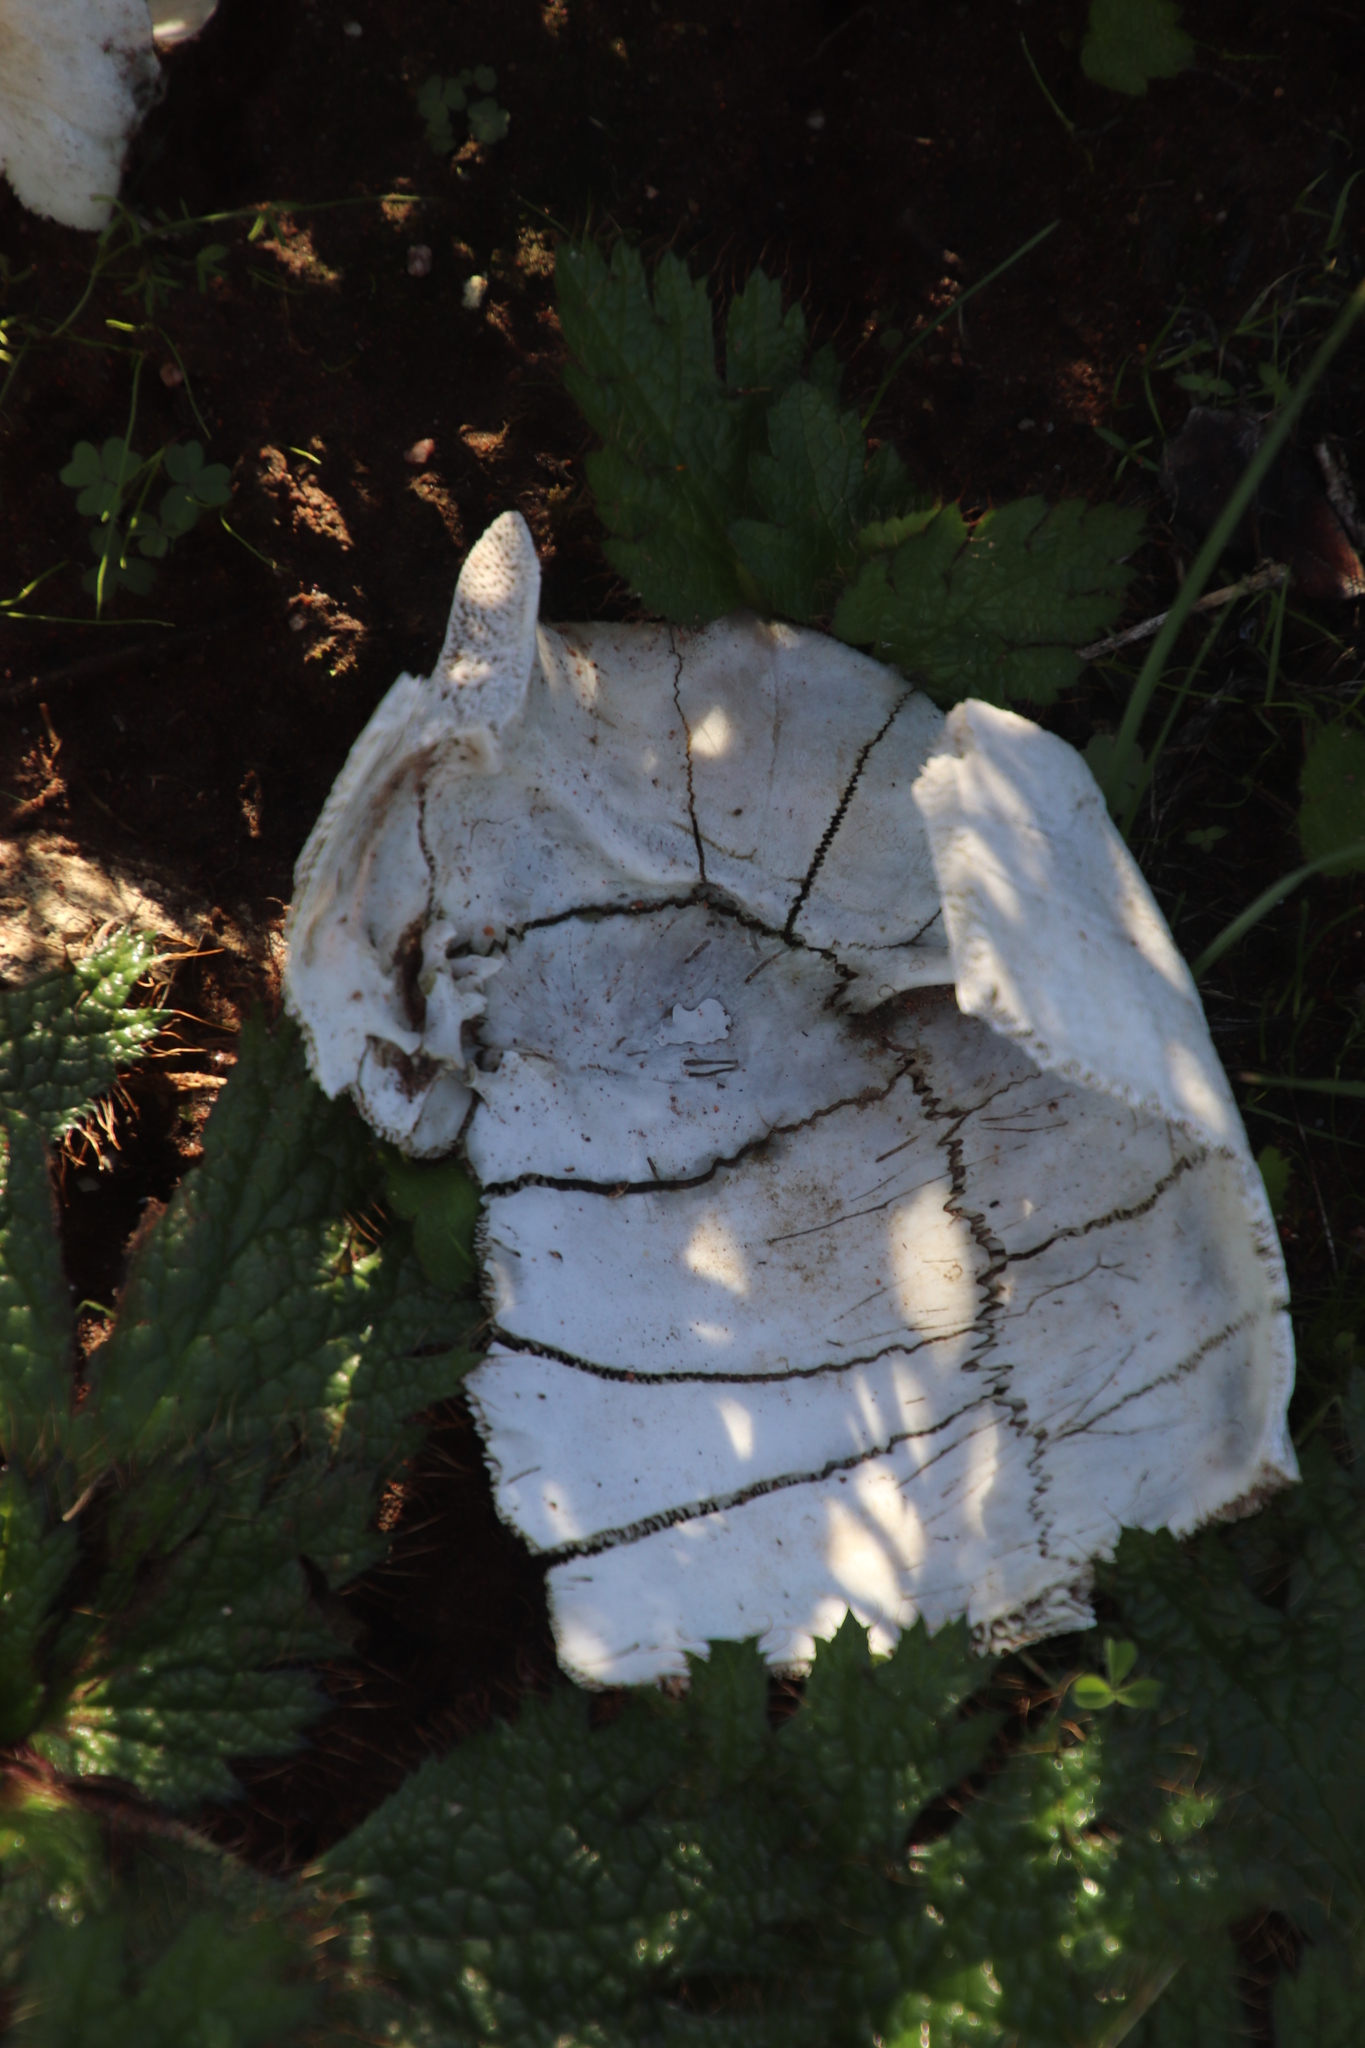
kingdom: Animalia
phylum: Chordata
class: Testudines
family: Testudinidae
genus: Chersina
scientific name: Chersina angulata
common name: South african bowsprit tortoise
